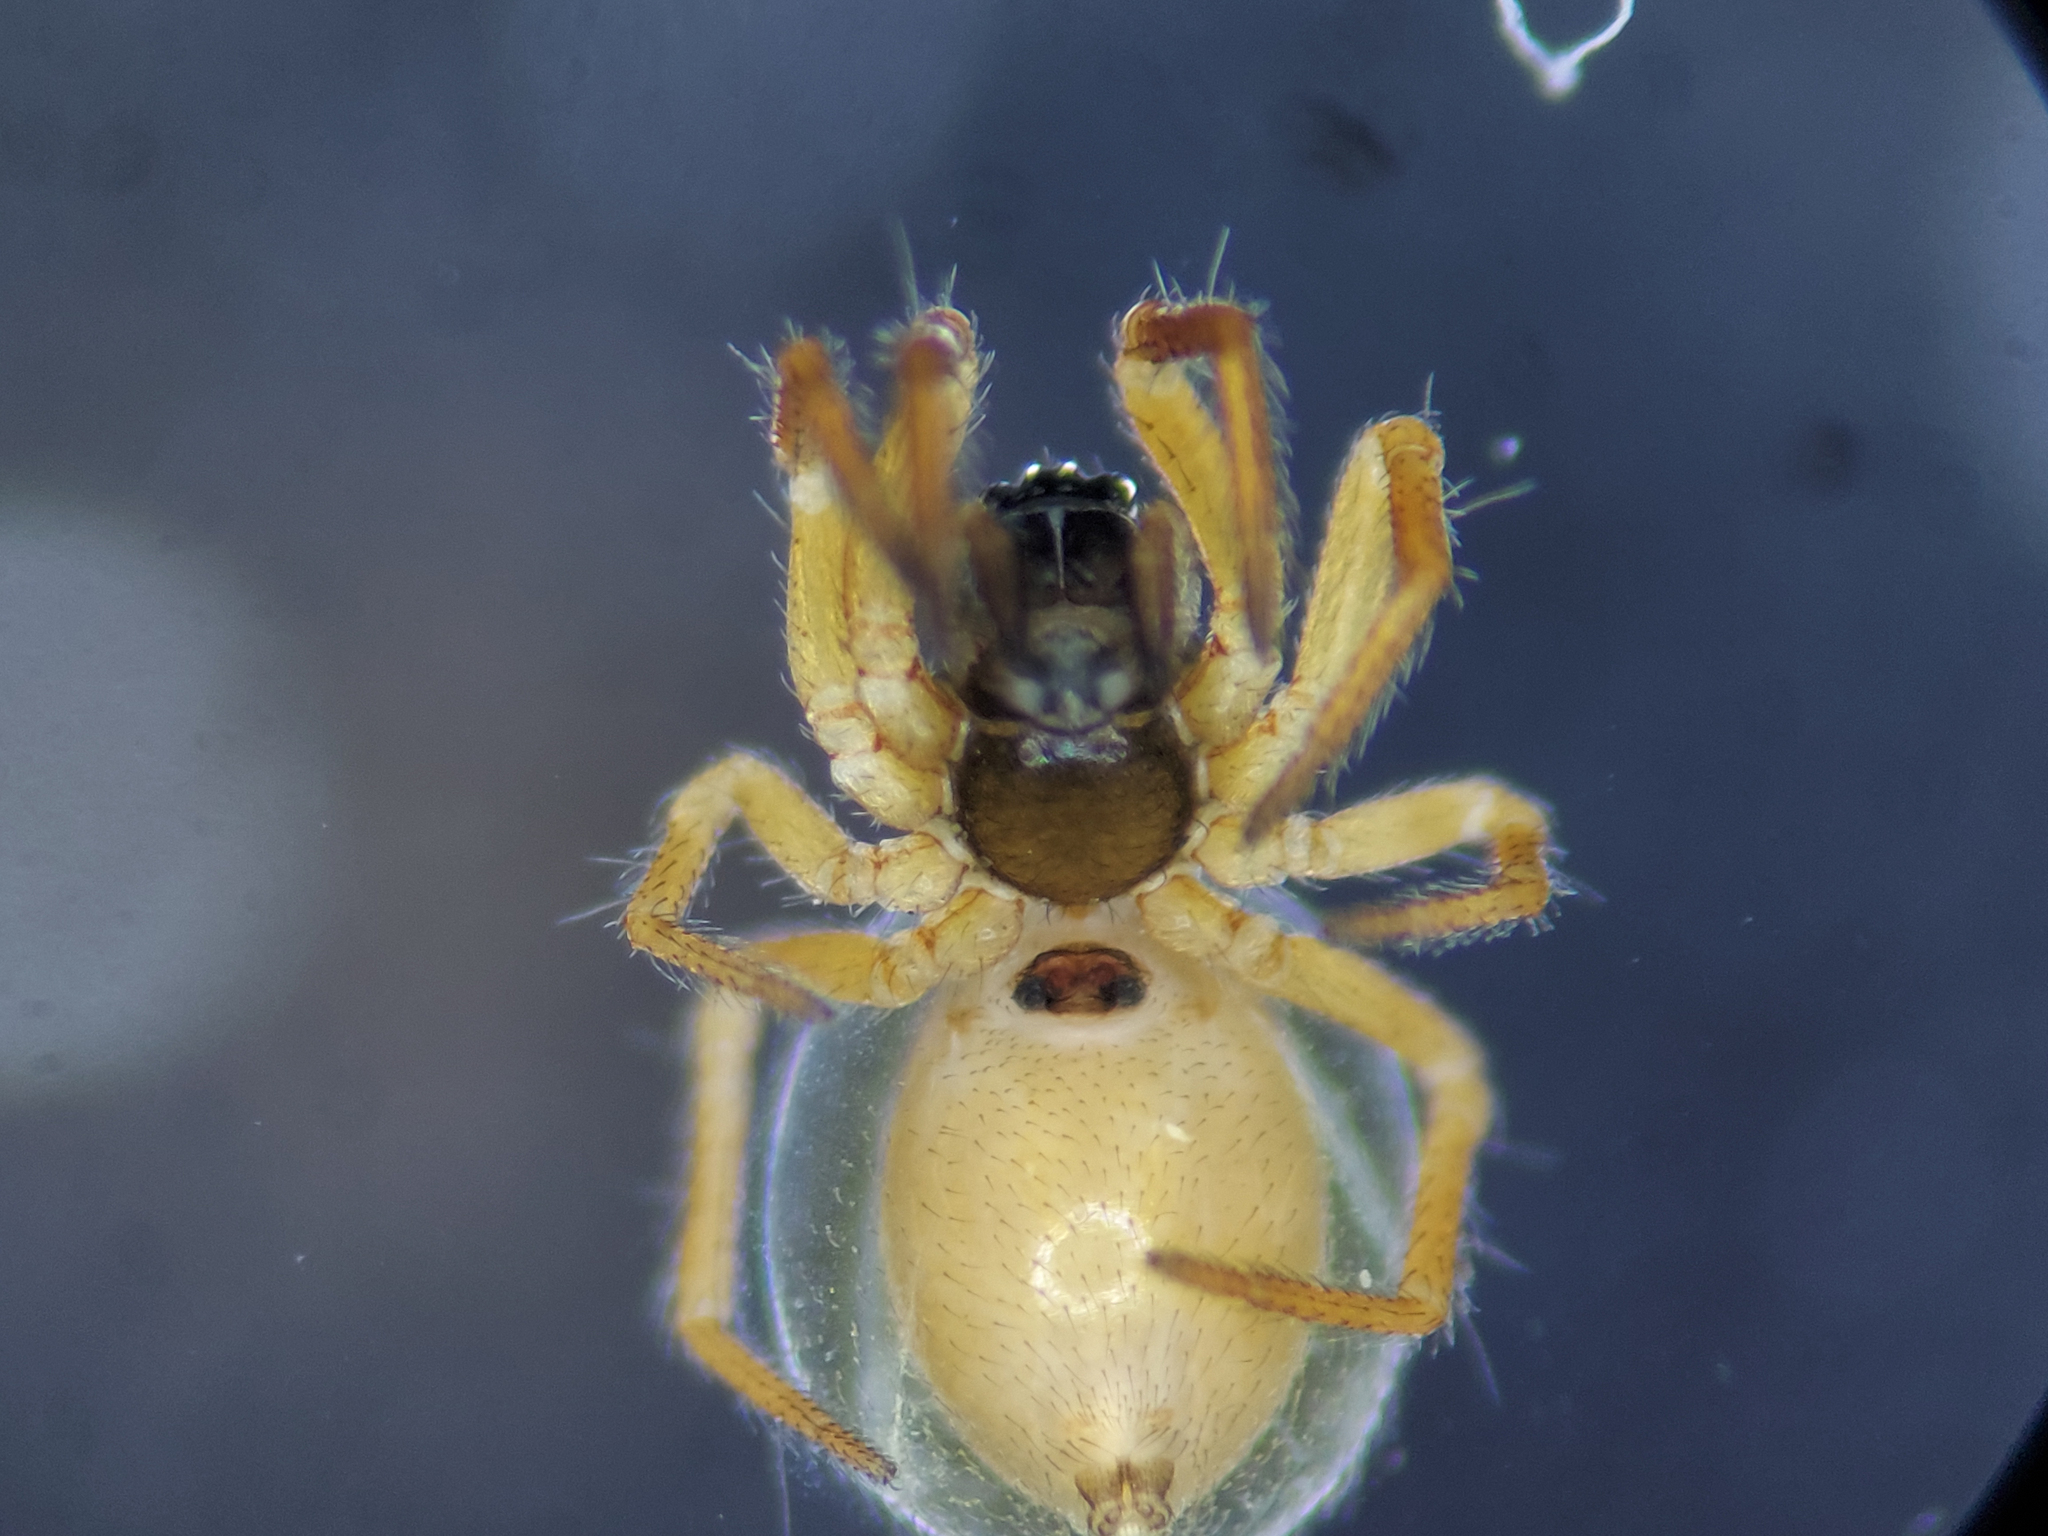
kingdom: Animalia
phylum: Arthropoda
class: Arachnida
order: Araneae
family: Linyphiidae
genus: Maso
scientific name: Maso sundevalli
